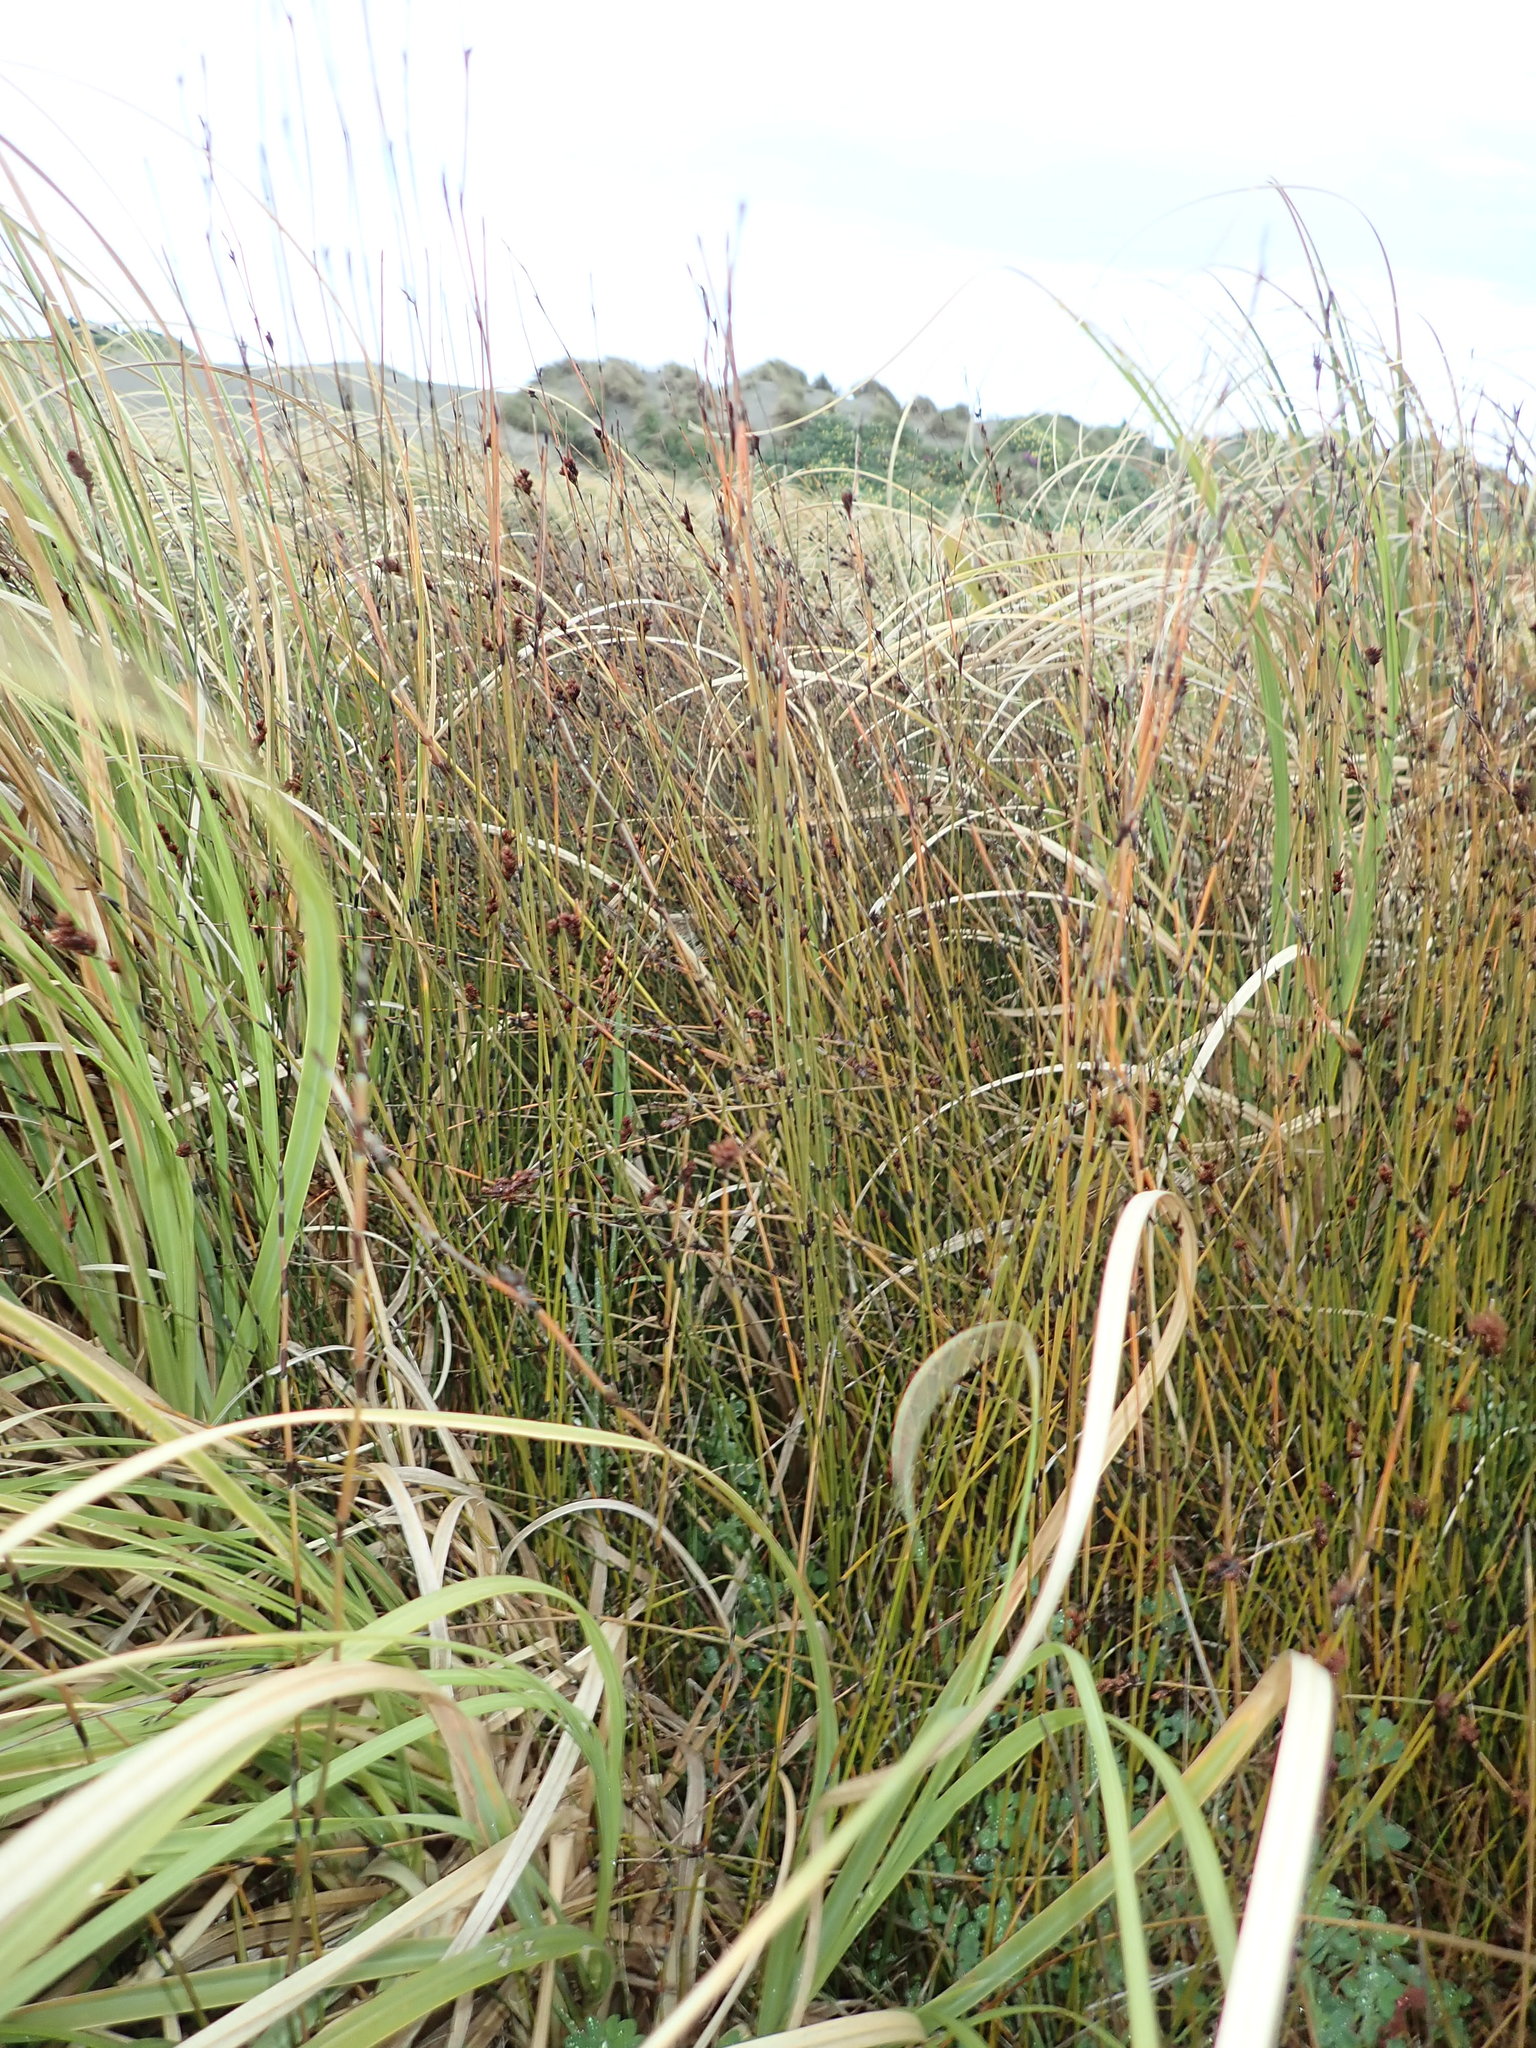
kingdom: Plantae
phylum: Tracheophyta
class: Liliopsida
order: Poales
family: Restionaceae
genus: Apodasmia
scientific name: Apodasmia similis
